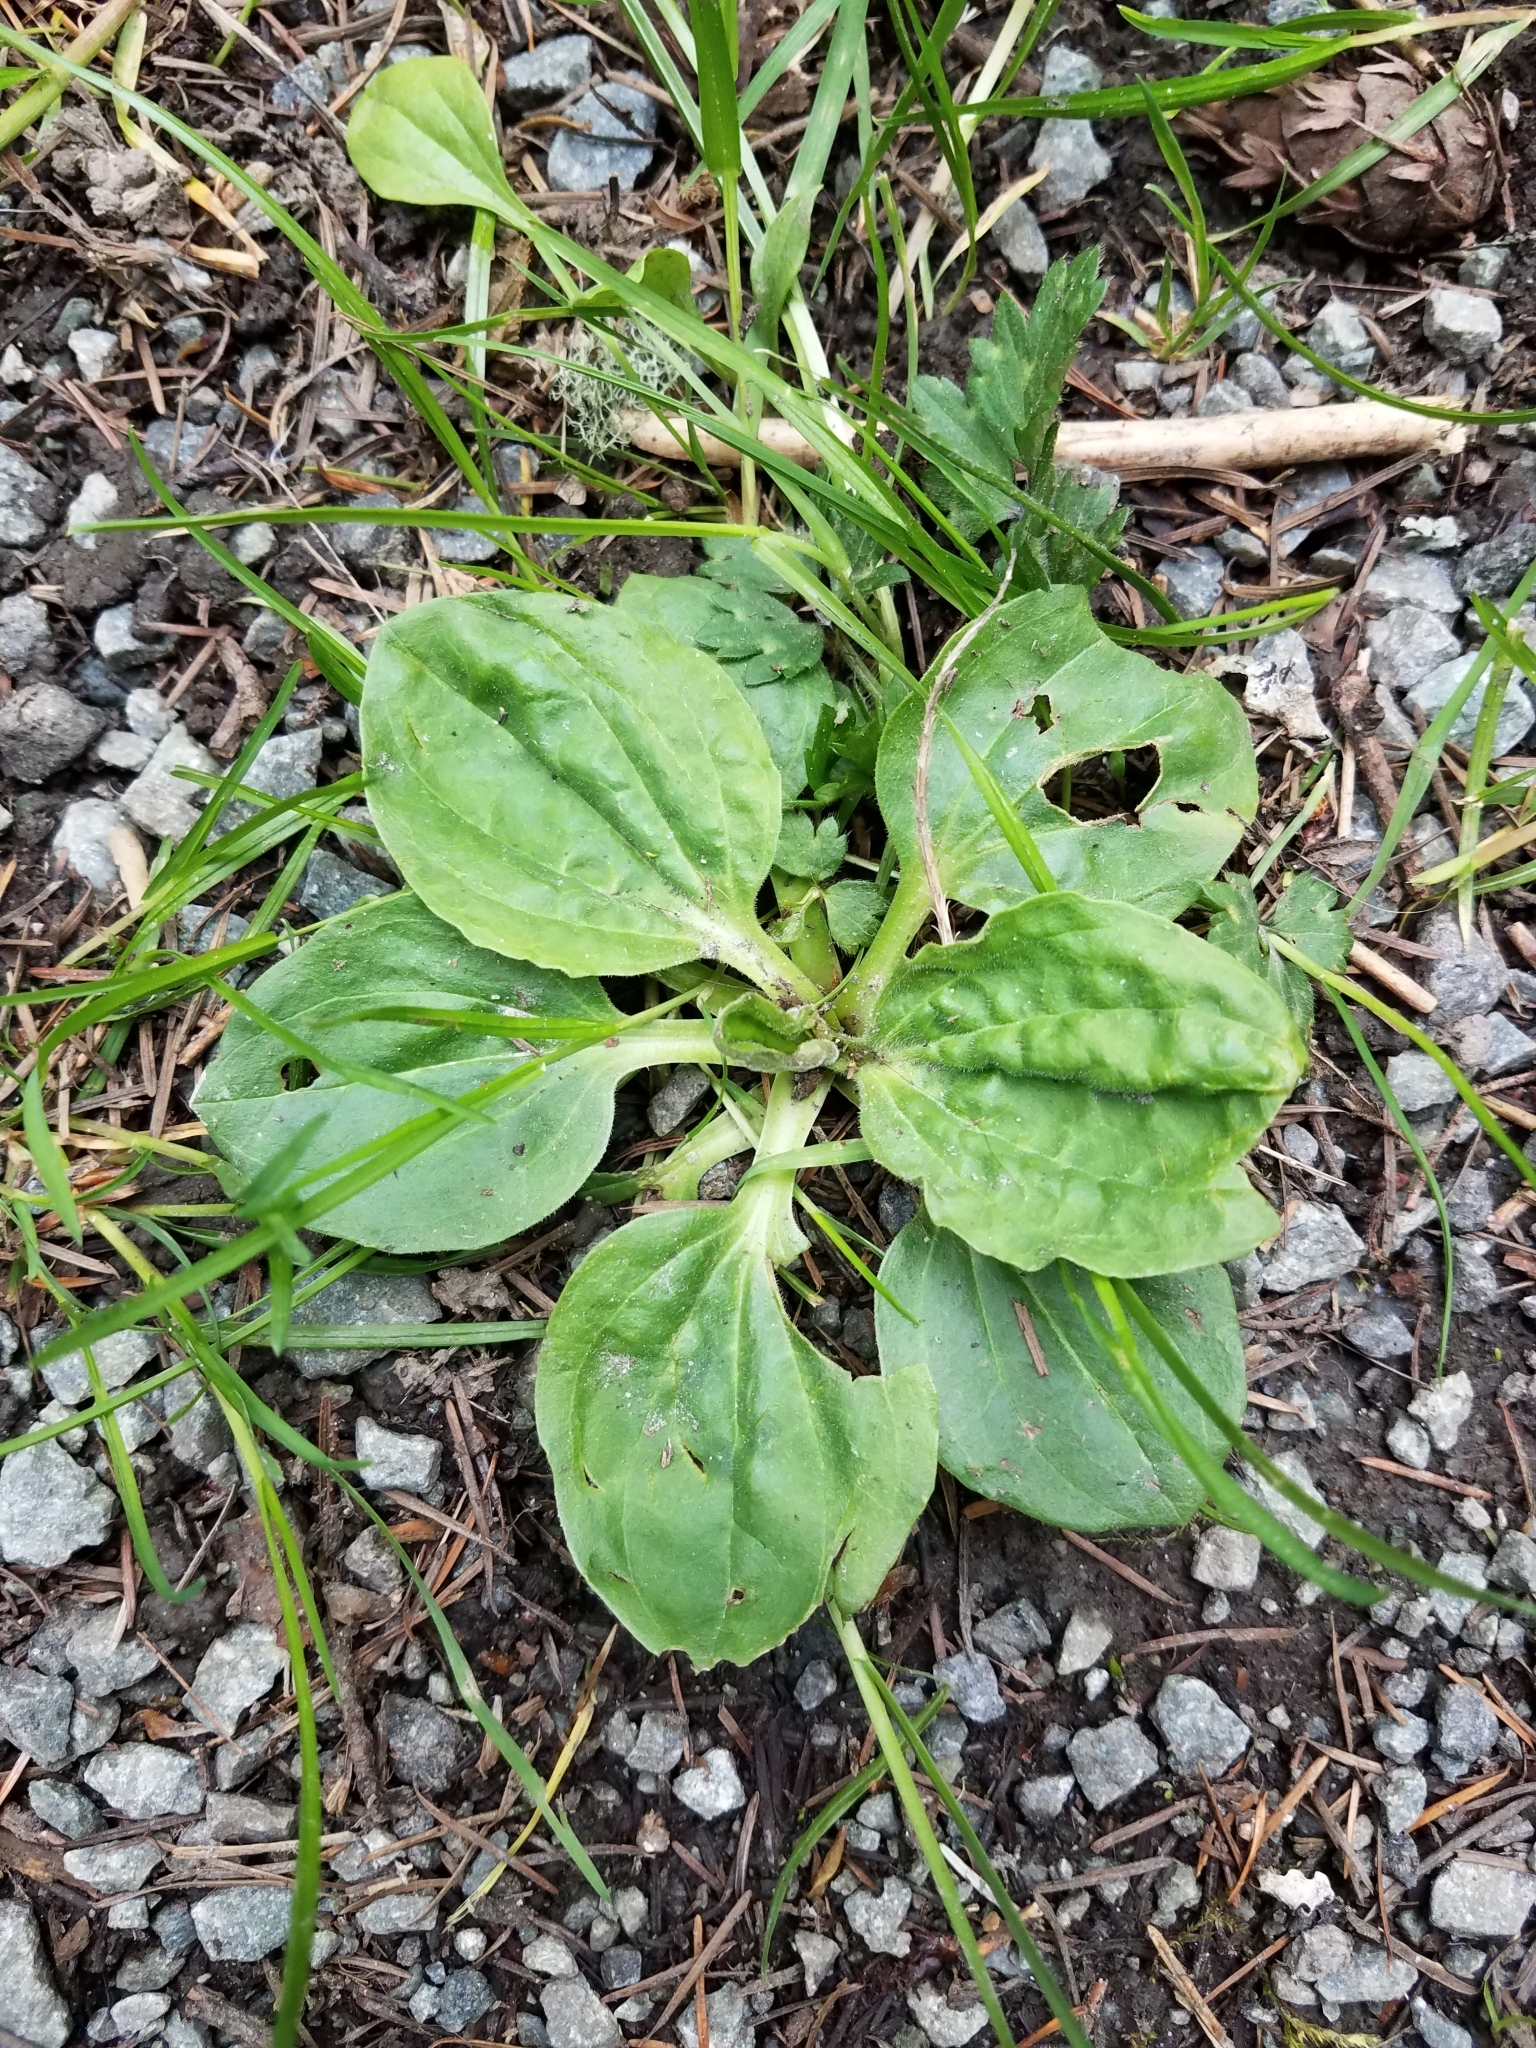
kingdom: Plantae
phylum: Tracheophyta
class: Magnoliopsida
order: Lamiales
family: Plantaginaceae
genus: Plantago
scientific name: Plantago major
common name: Common plantain
